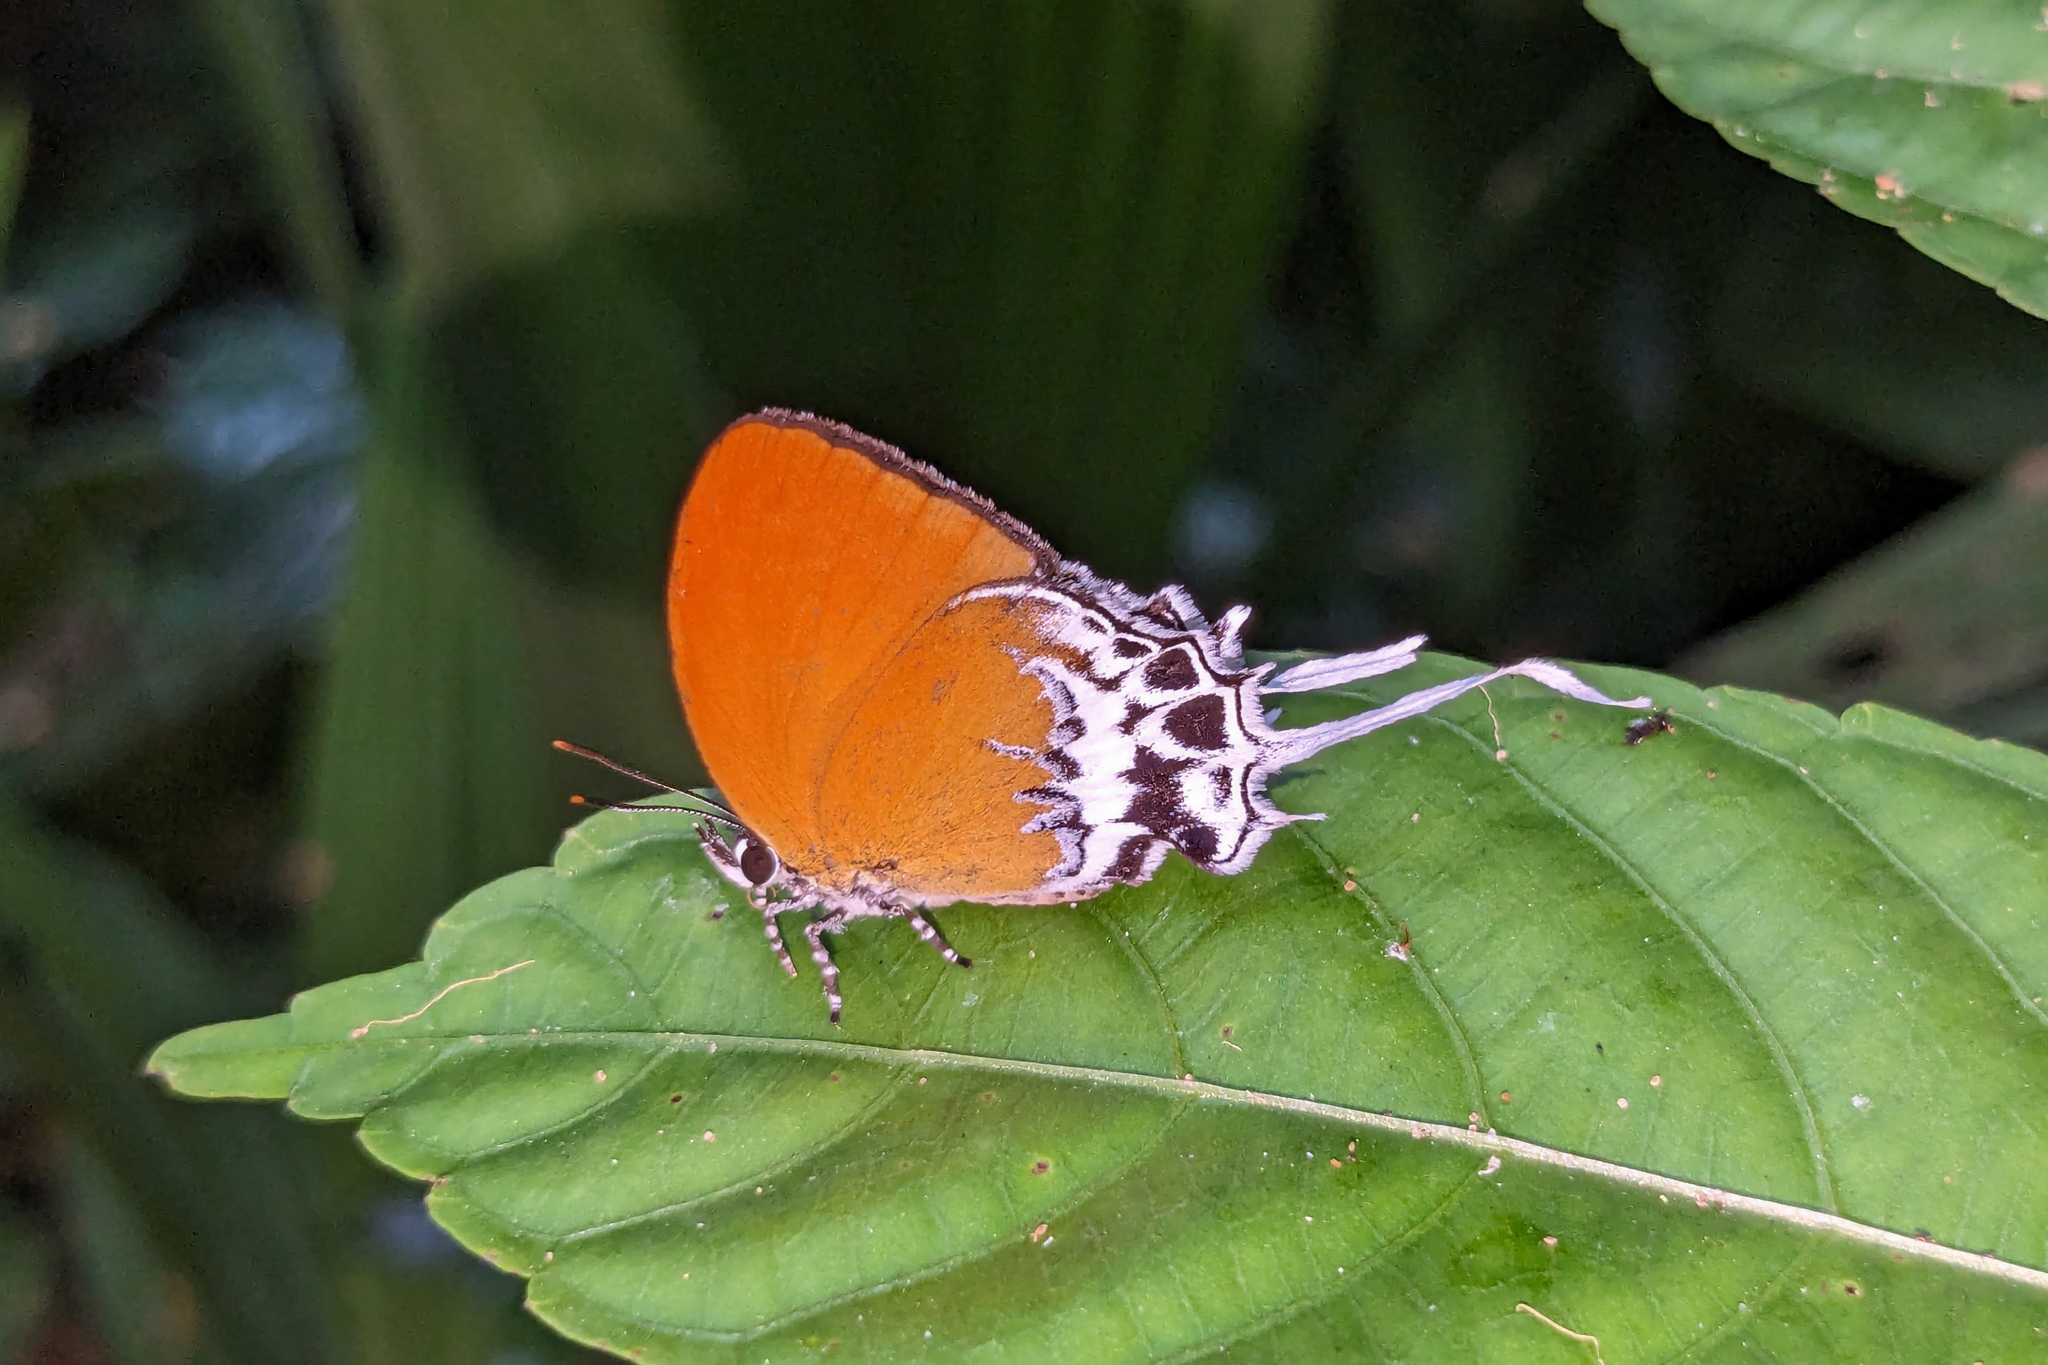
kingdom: Animalia
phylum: Arthropoda
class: Insecta
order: Lepidoptera
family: Lycaenidae
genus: Eooxylides
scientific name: Eooxylides tharis
